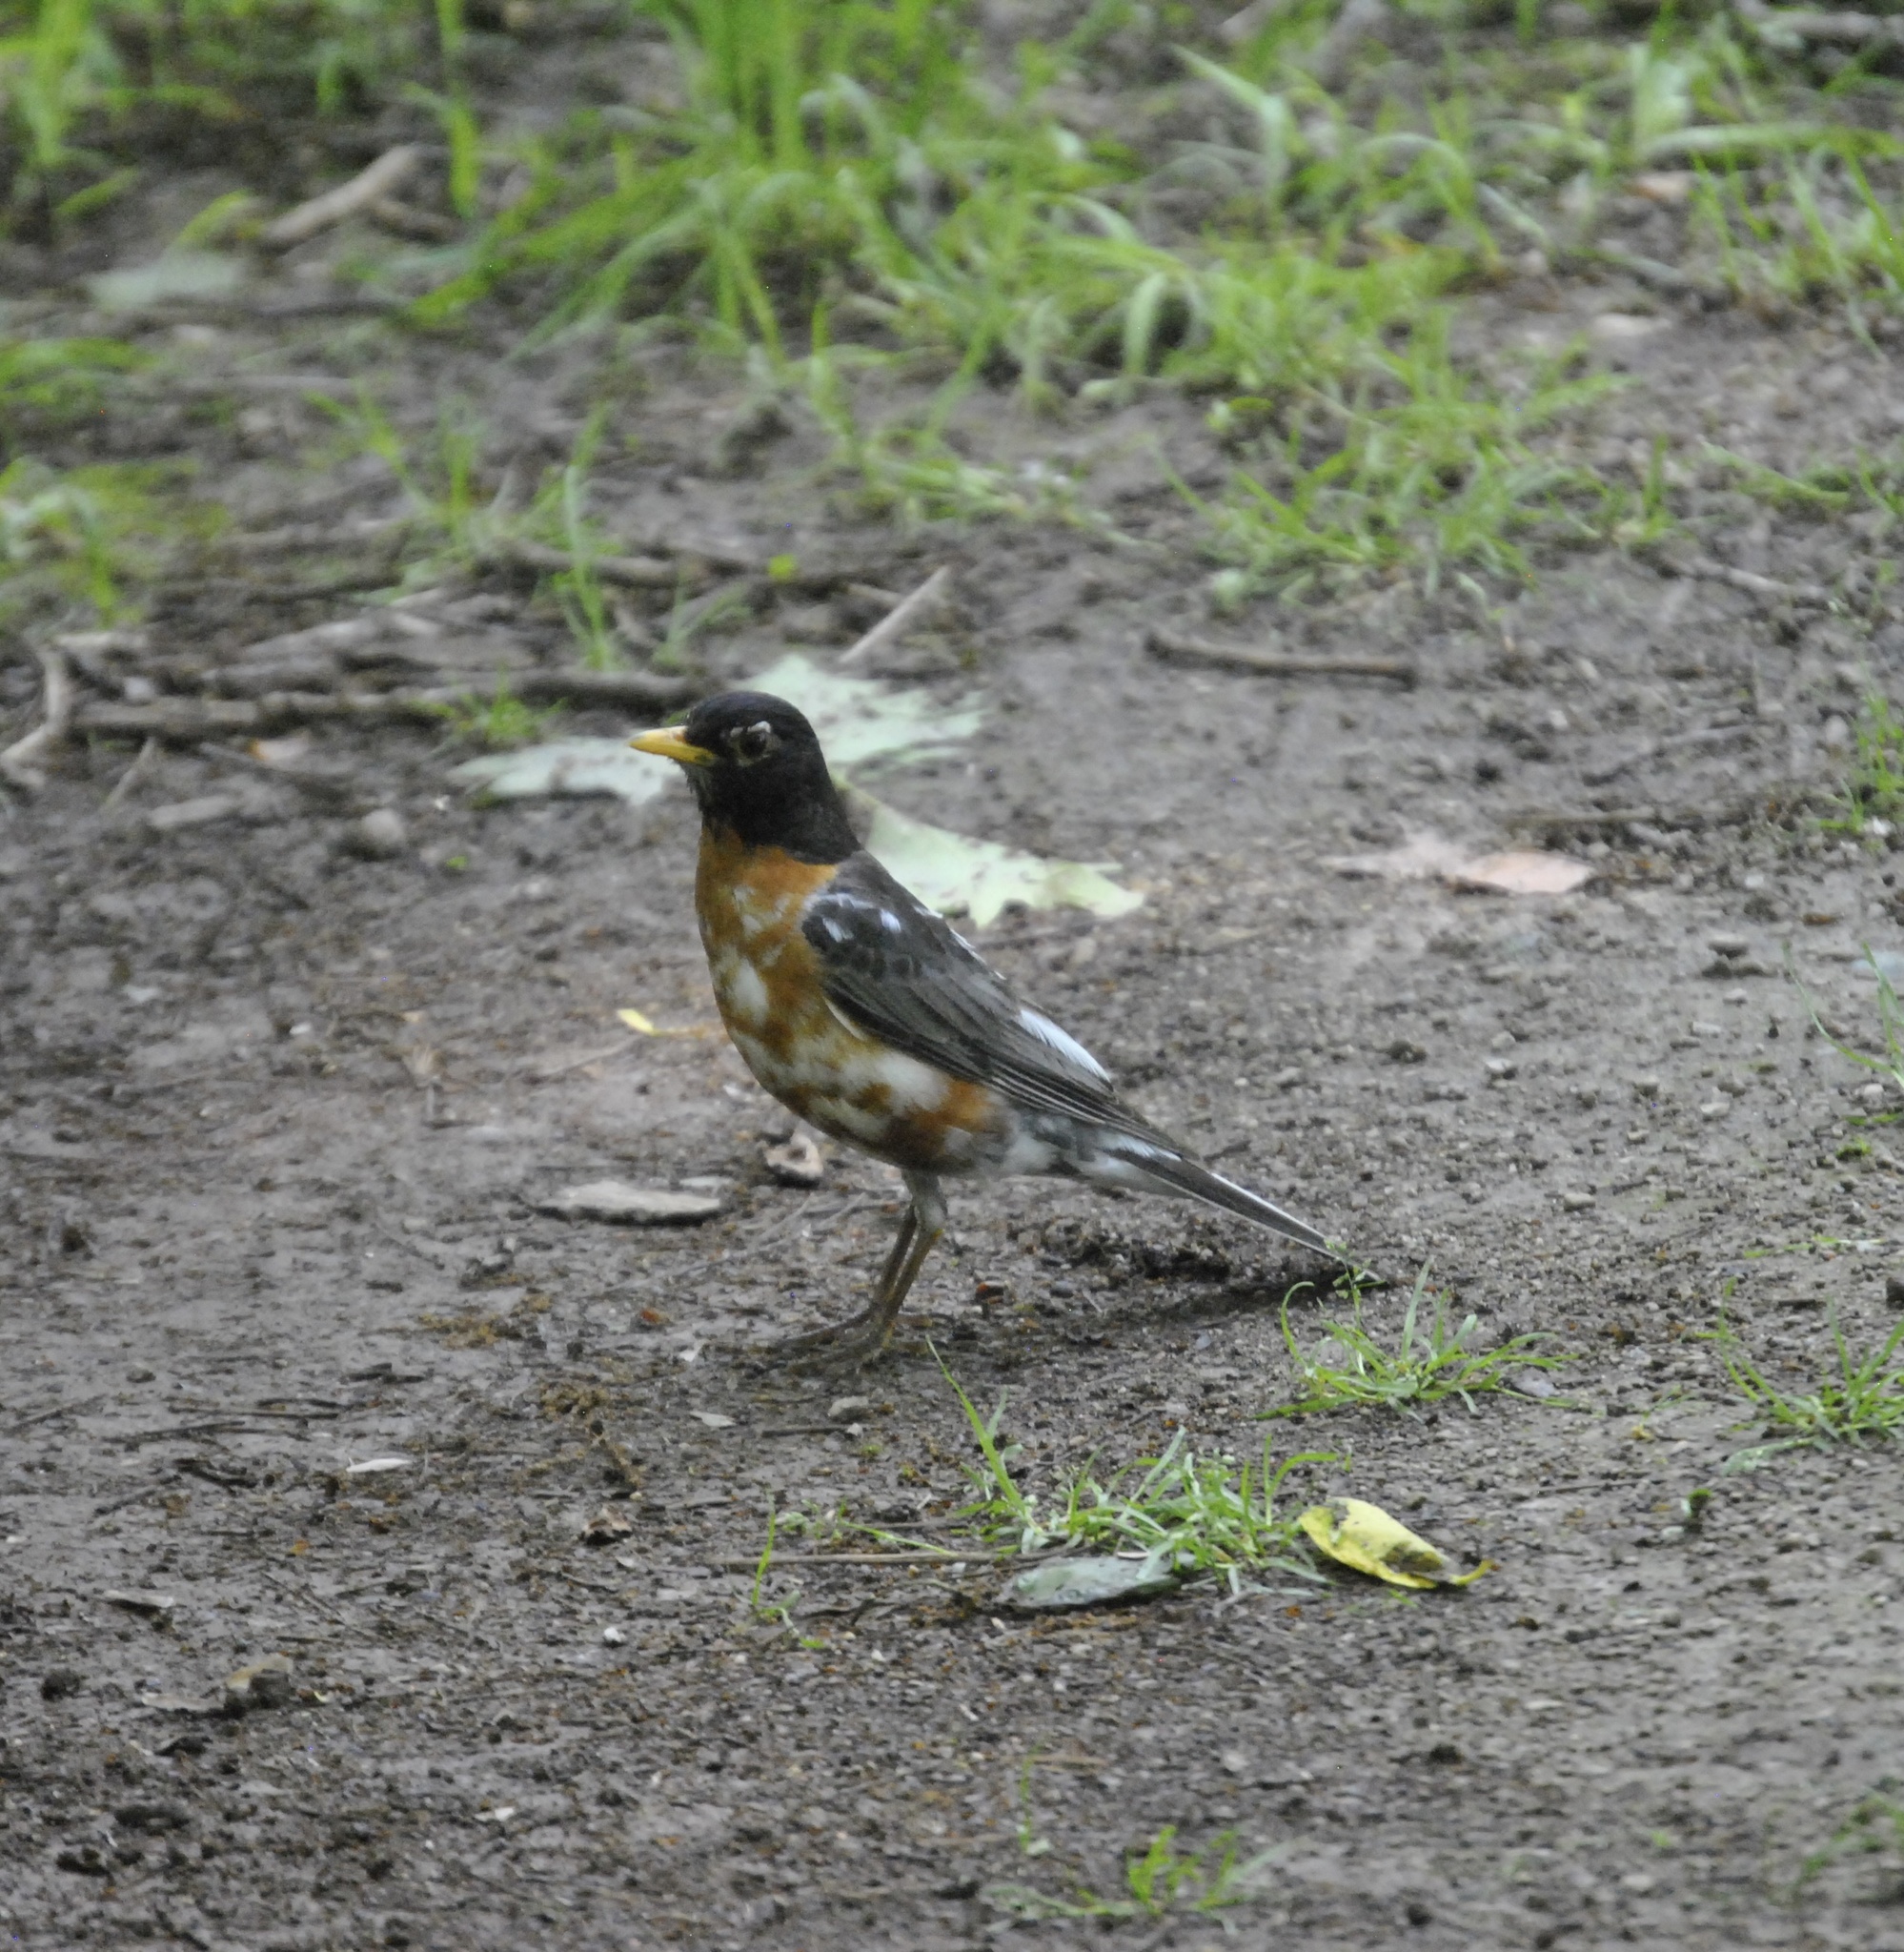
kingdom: Animalia
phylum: Chordata
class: Aves
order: Passeriformes
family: Turdidae
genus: Turdus
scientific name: Turdus migratorius
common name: American robin
